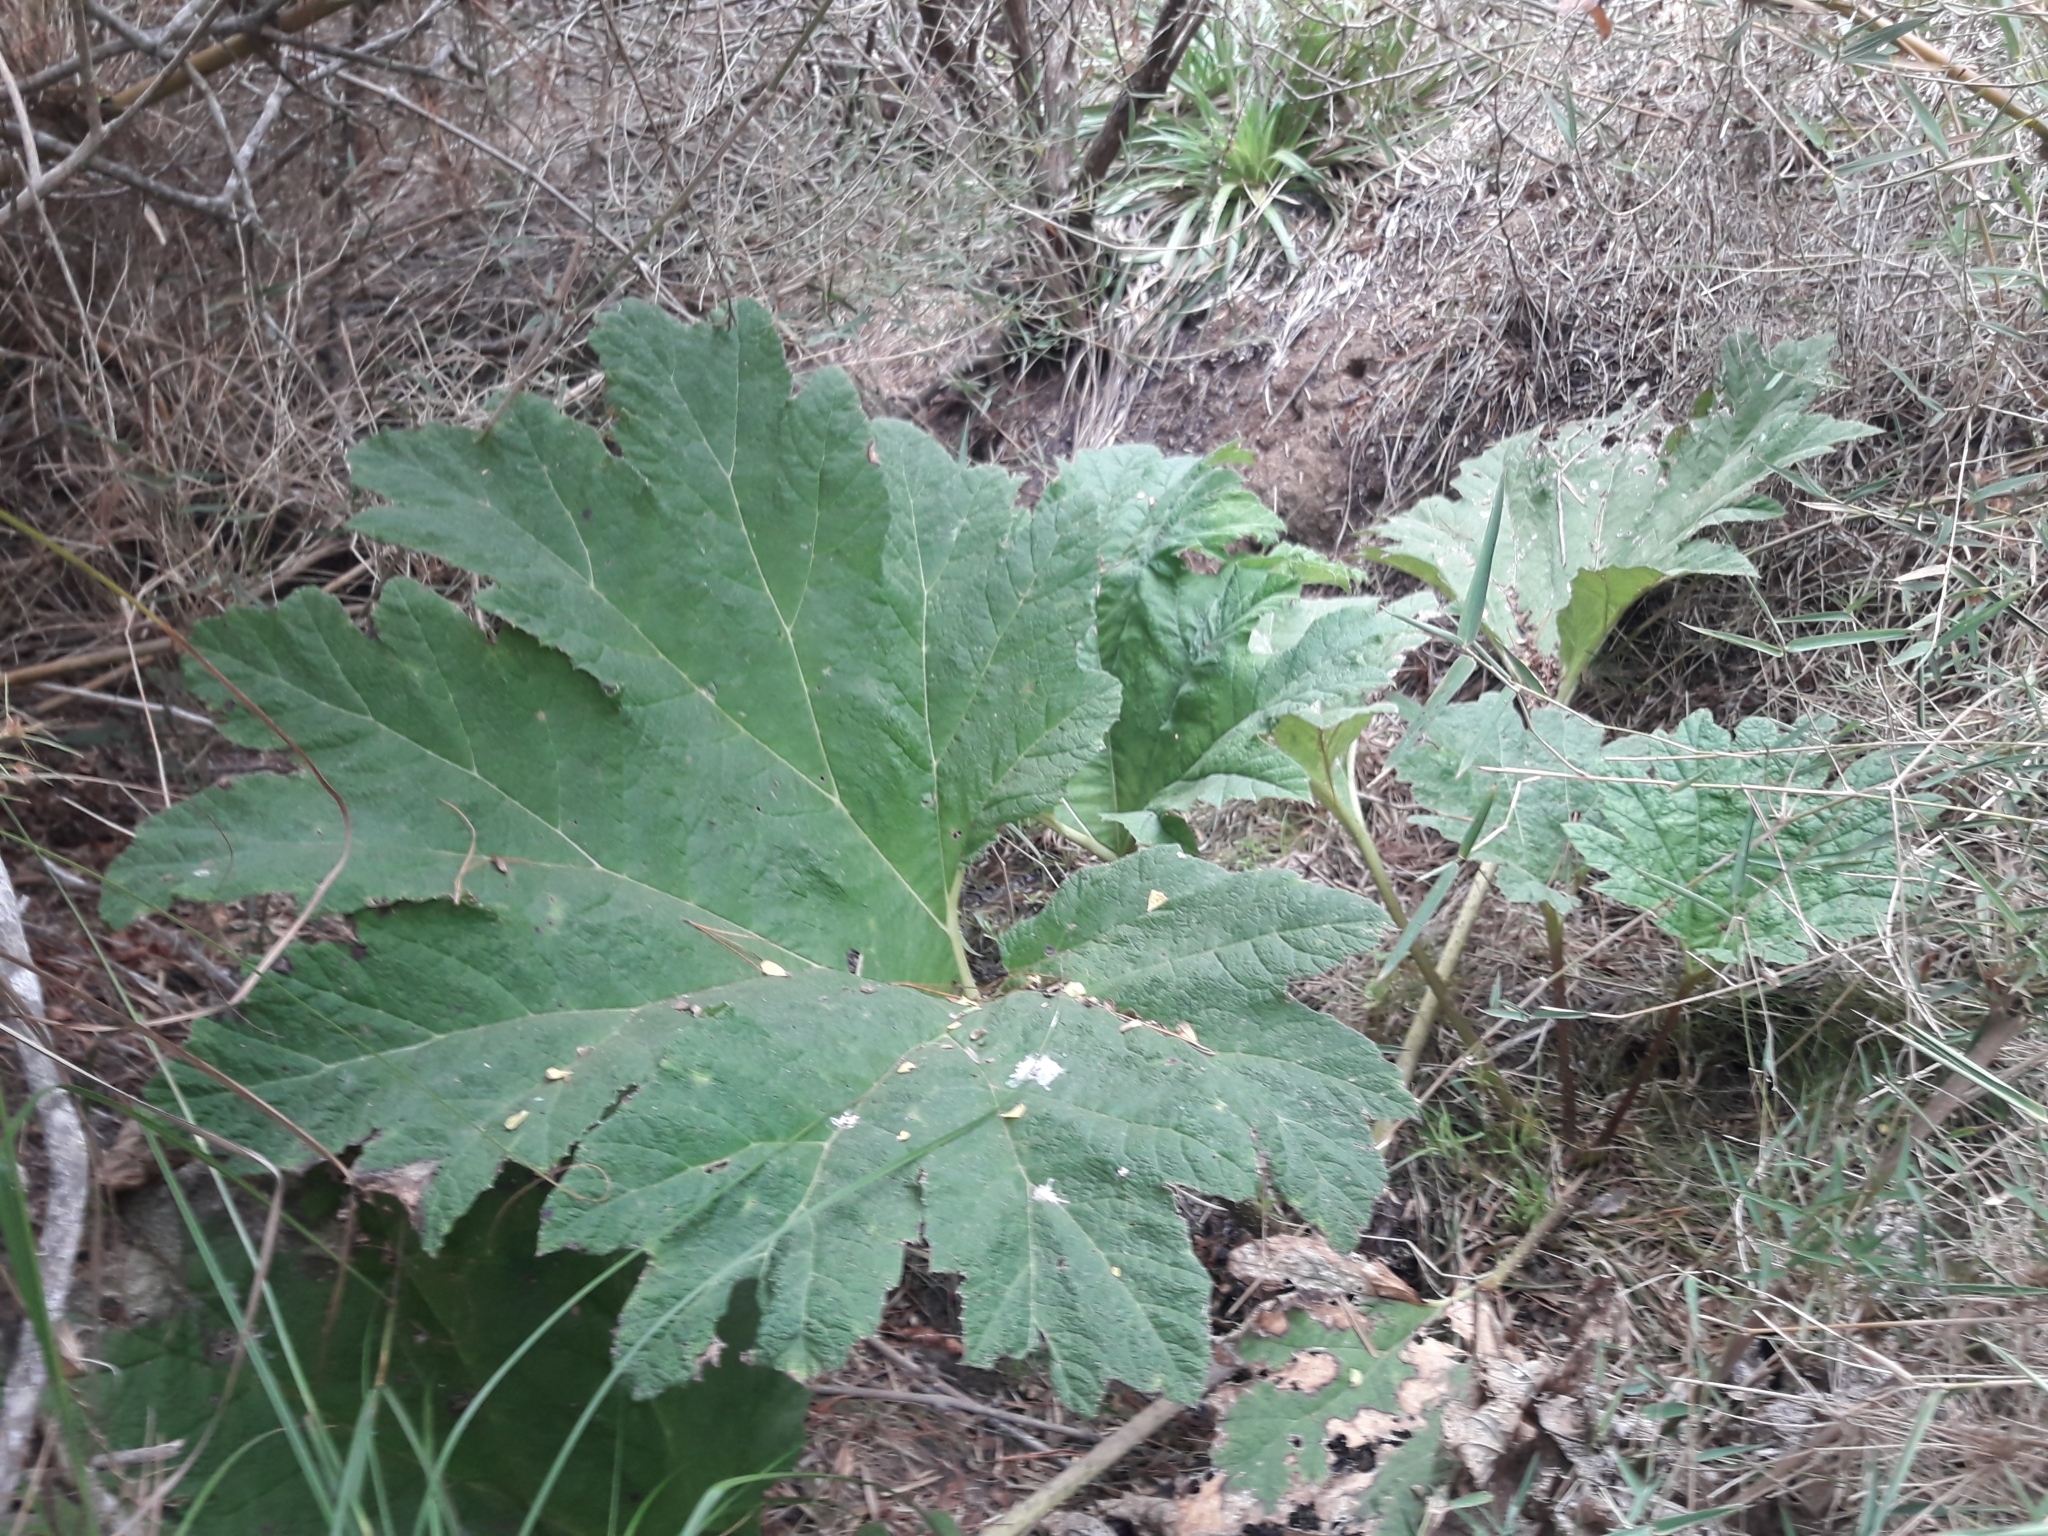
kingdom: Plantae
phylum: Tracheophyta
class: Magnoliopsida
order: Gunnerales
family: Gunneraceae
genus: Gunnera
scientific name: Gunnera tinctoria
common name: Giant-rhubarb
